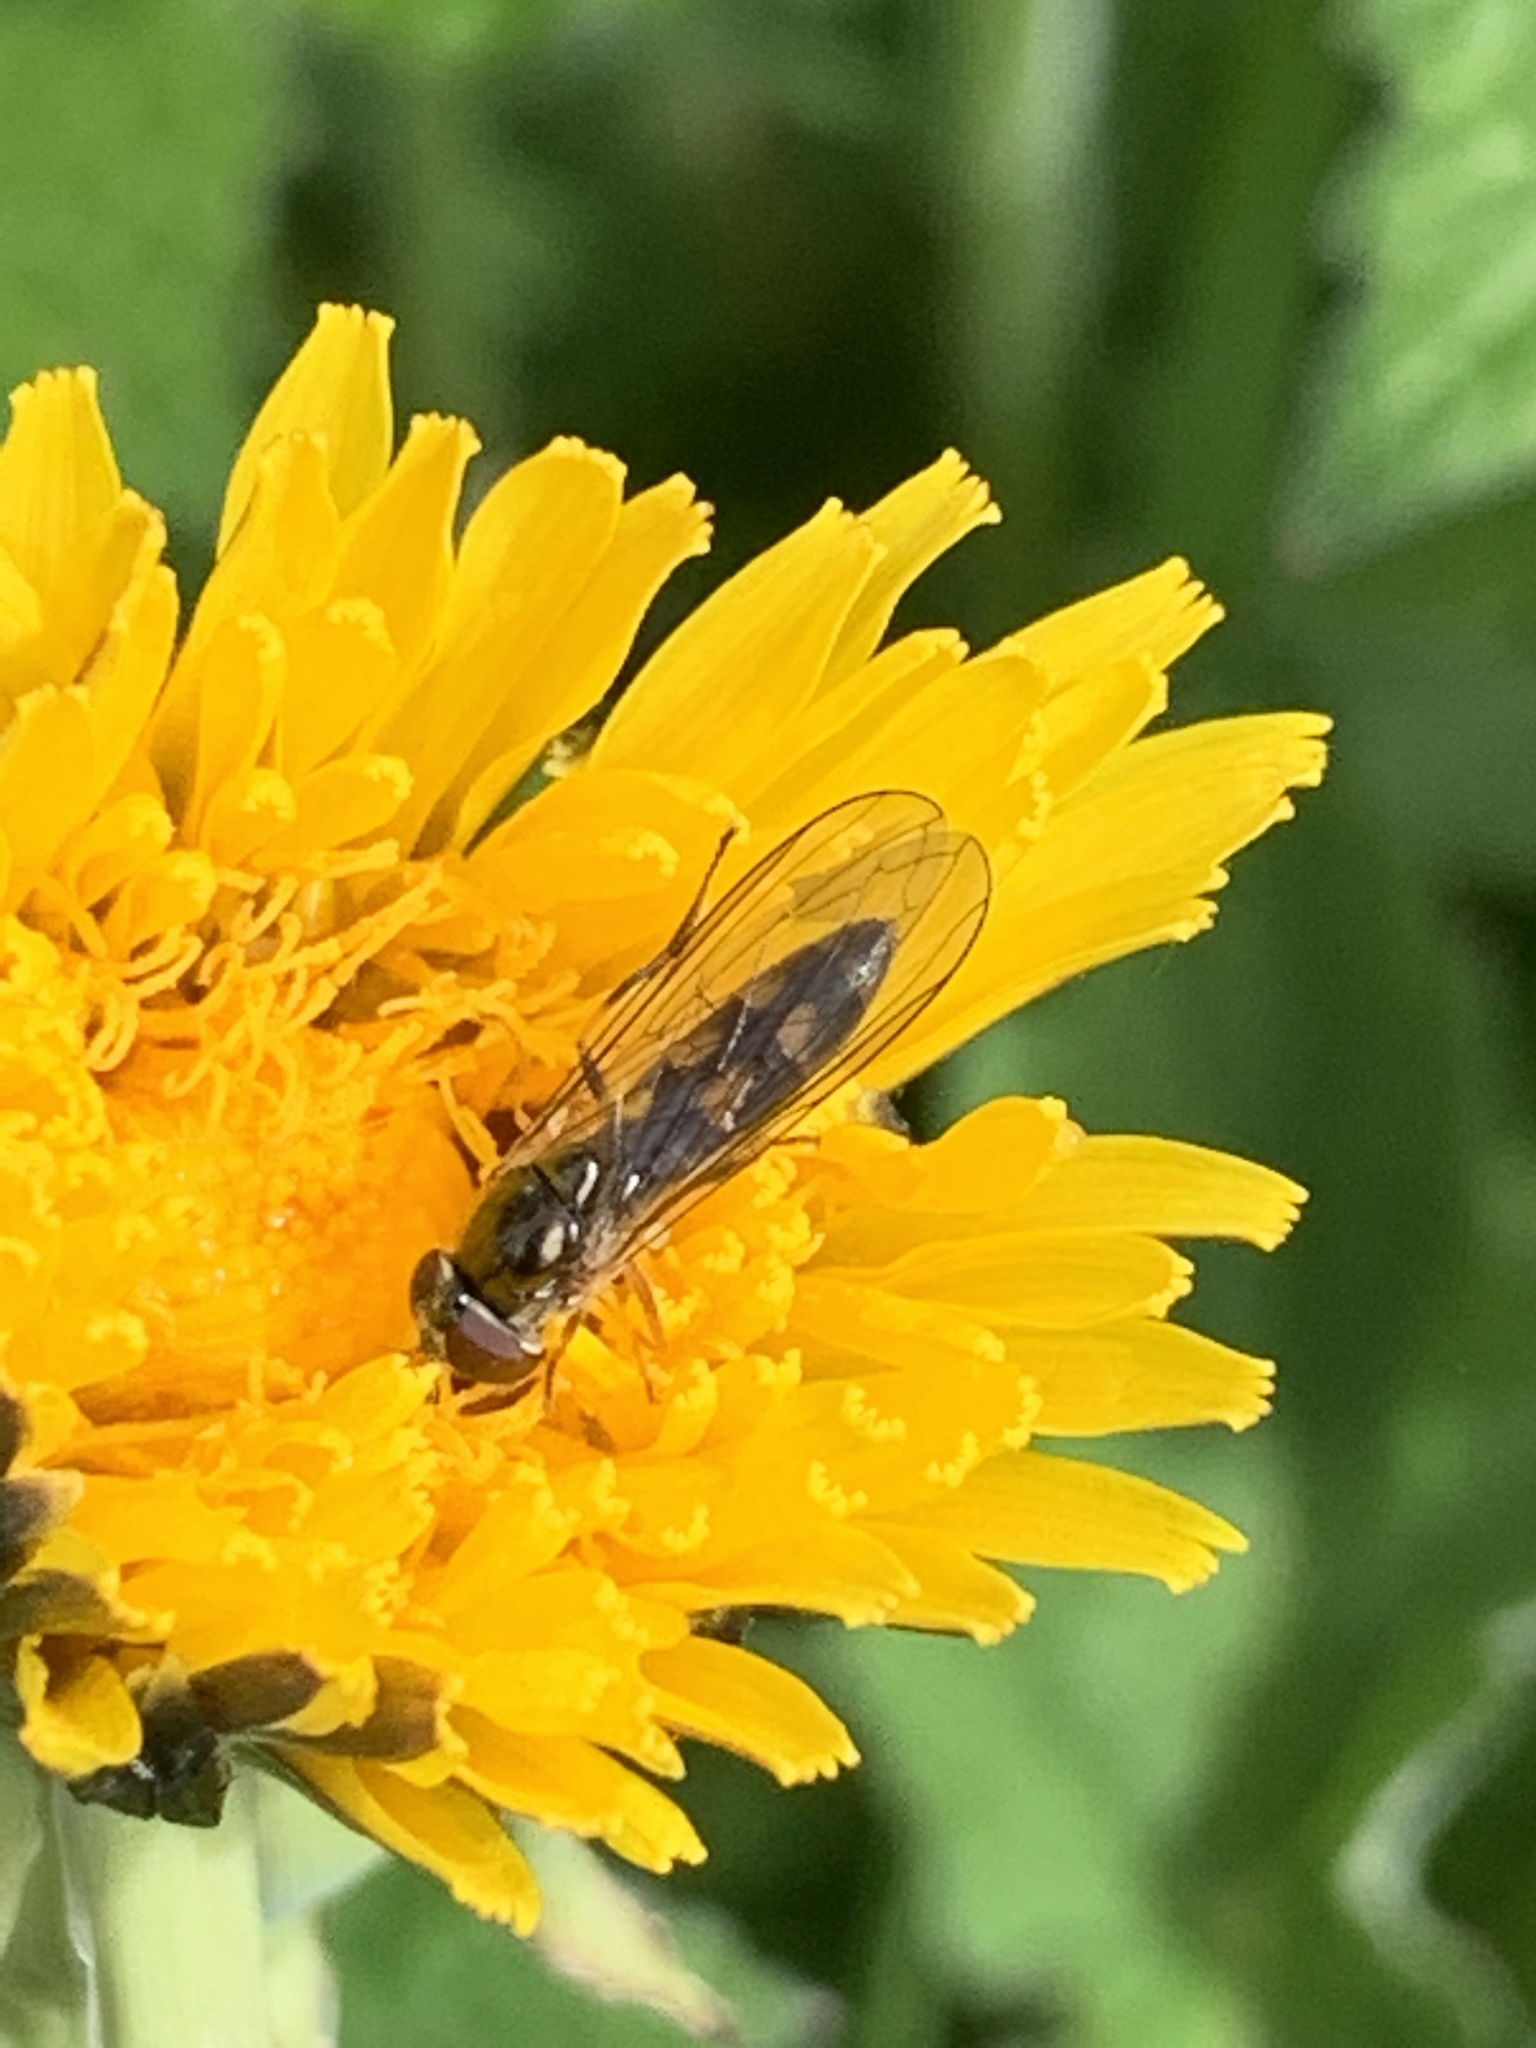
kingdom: Animalia
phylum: Arthropoda
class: Insecta
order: Diptera
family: Syrphidae
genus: Melanostoma
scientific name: Melanostoma scalare
